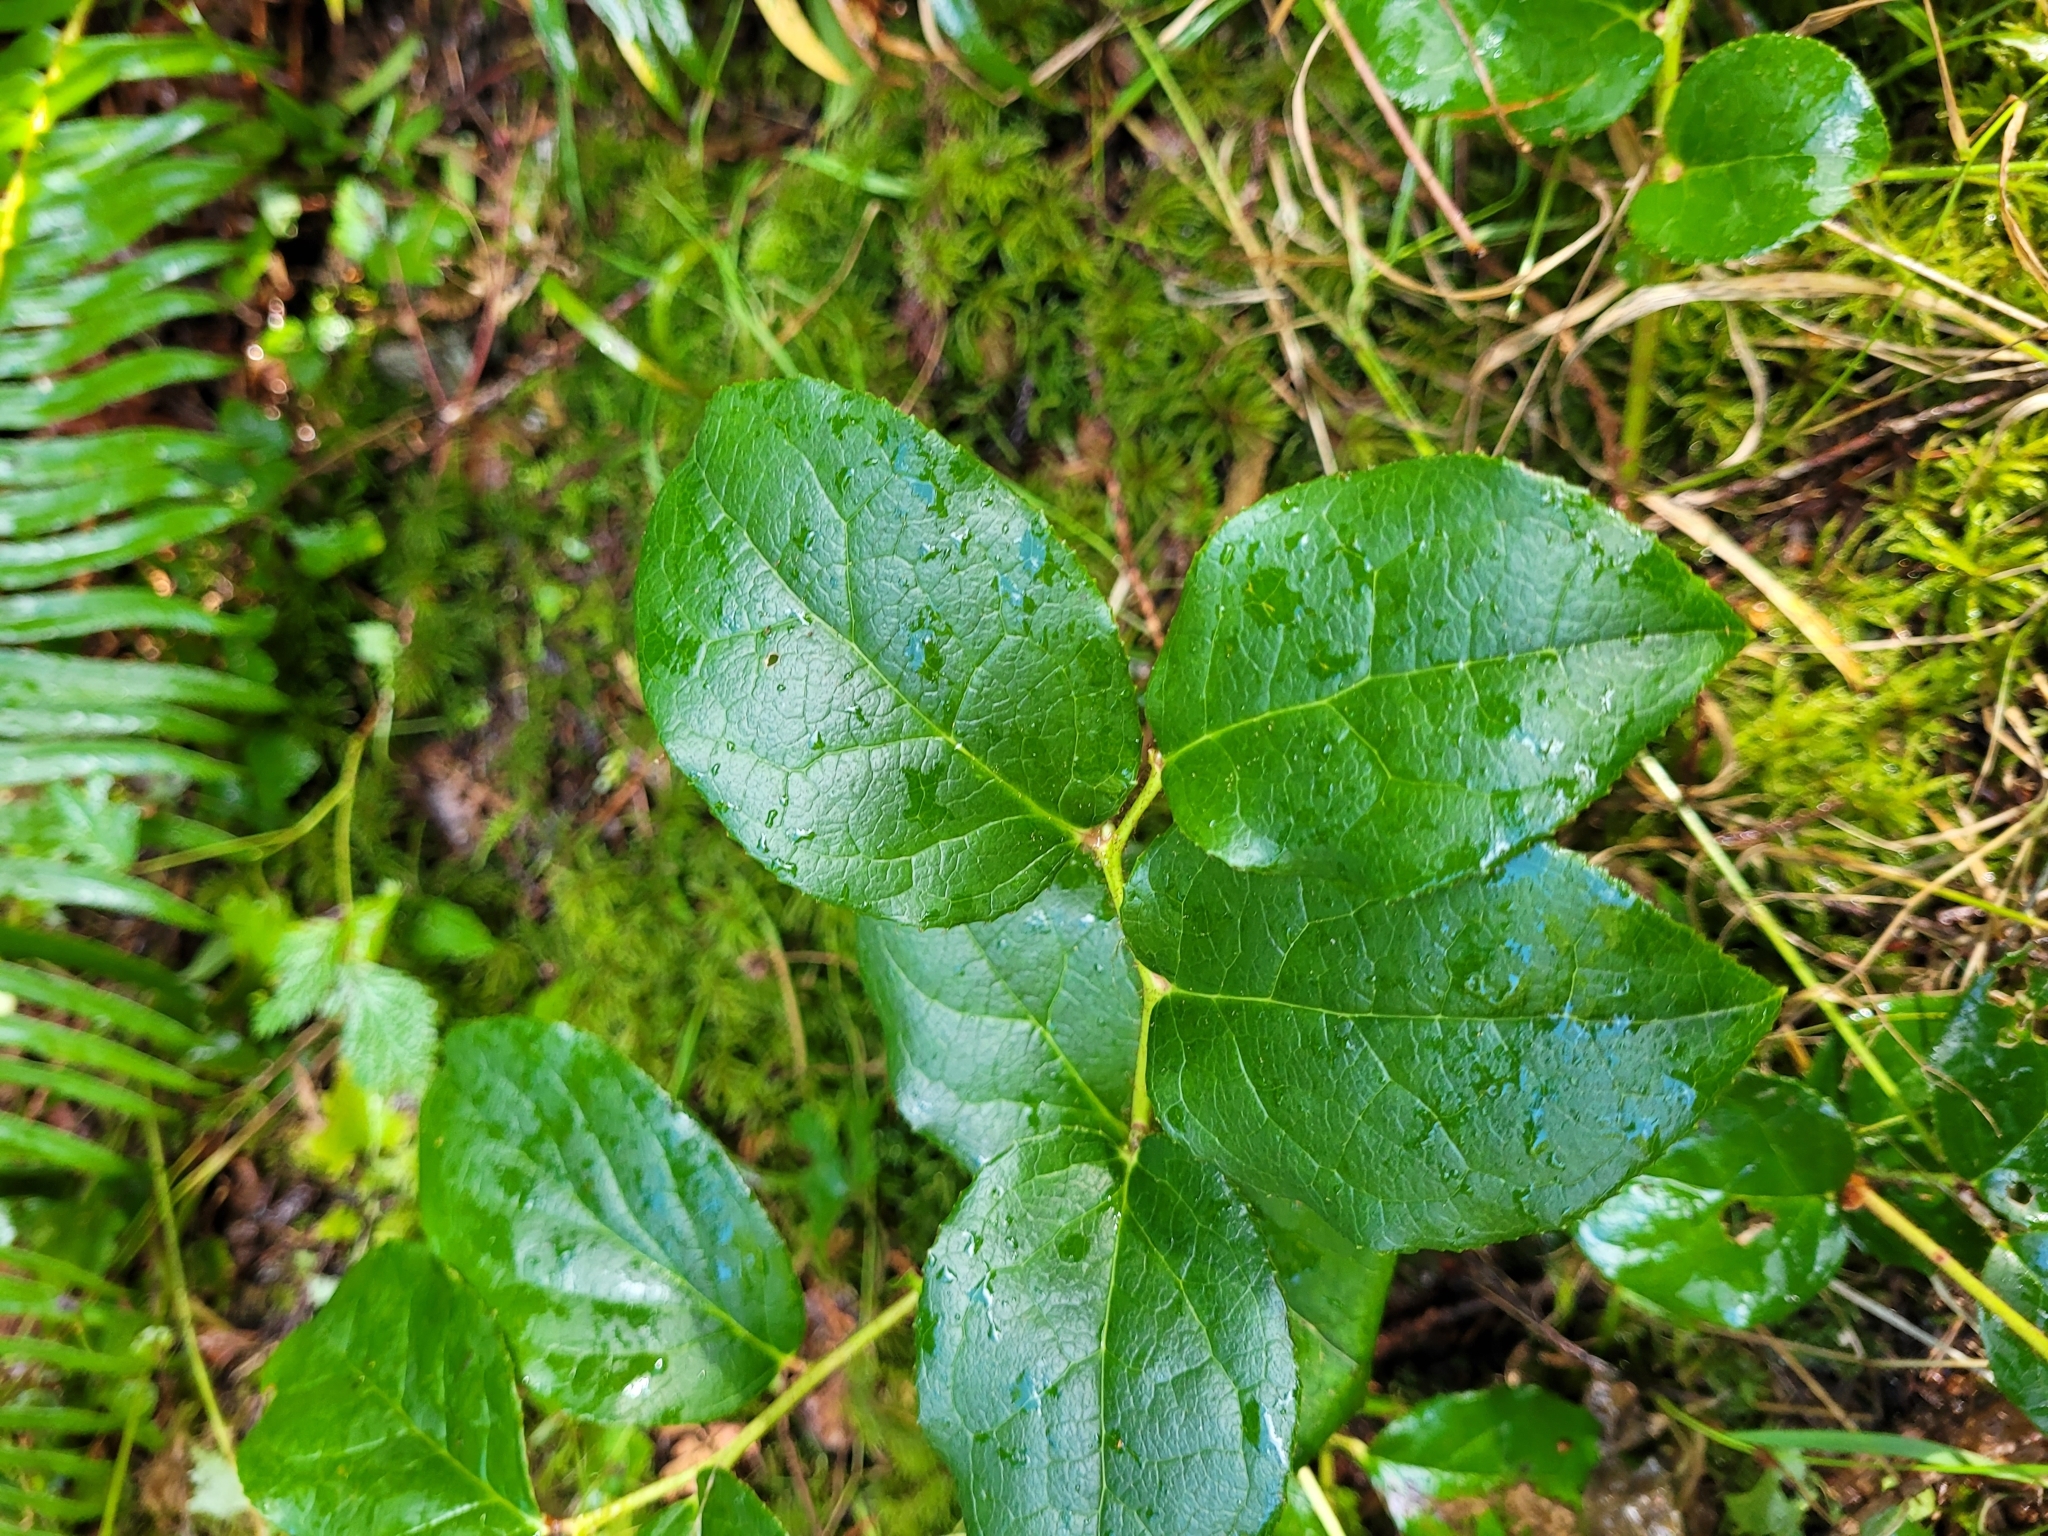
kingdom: Plantae
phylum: Tracheophyta
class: Magnoliopsida
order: Ericales
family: Ericaceae
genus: Gaultheria
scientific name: Gaultheria shallon
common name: Shallon
